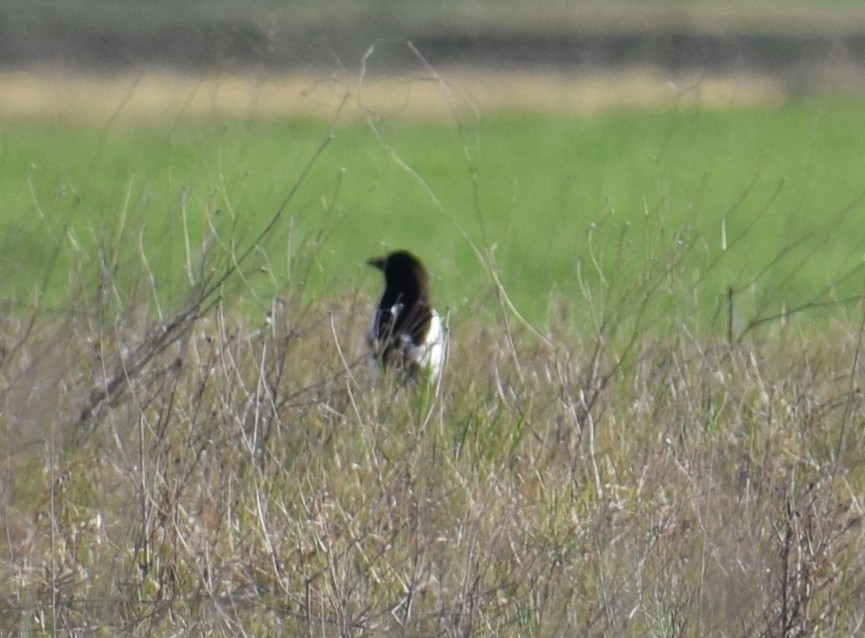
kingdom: Animalia
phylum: Chordata
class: Aves
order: Passeriformes
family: Corvidae
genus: Pica
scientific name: Pica pica
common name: Eurasian magpie
